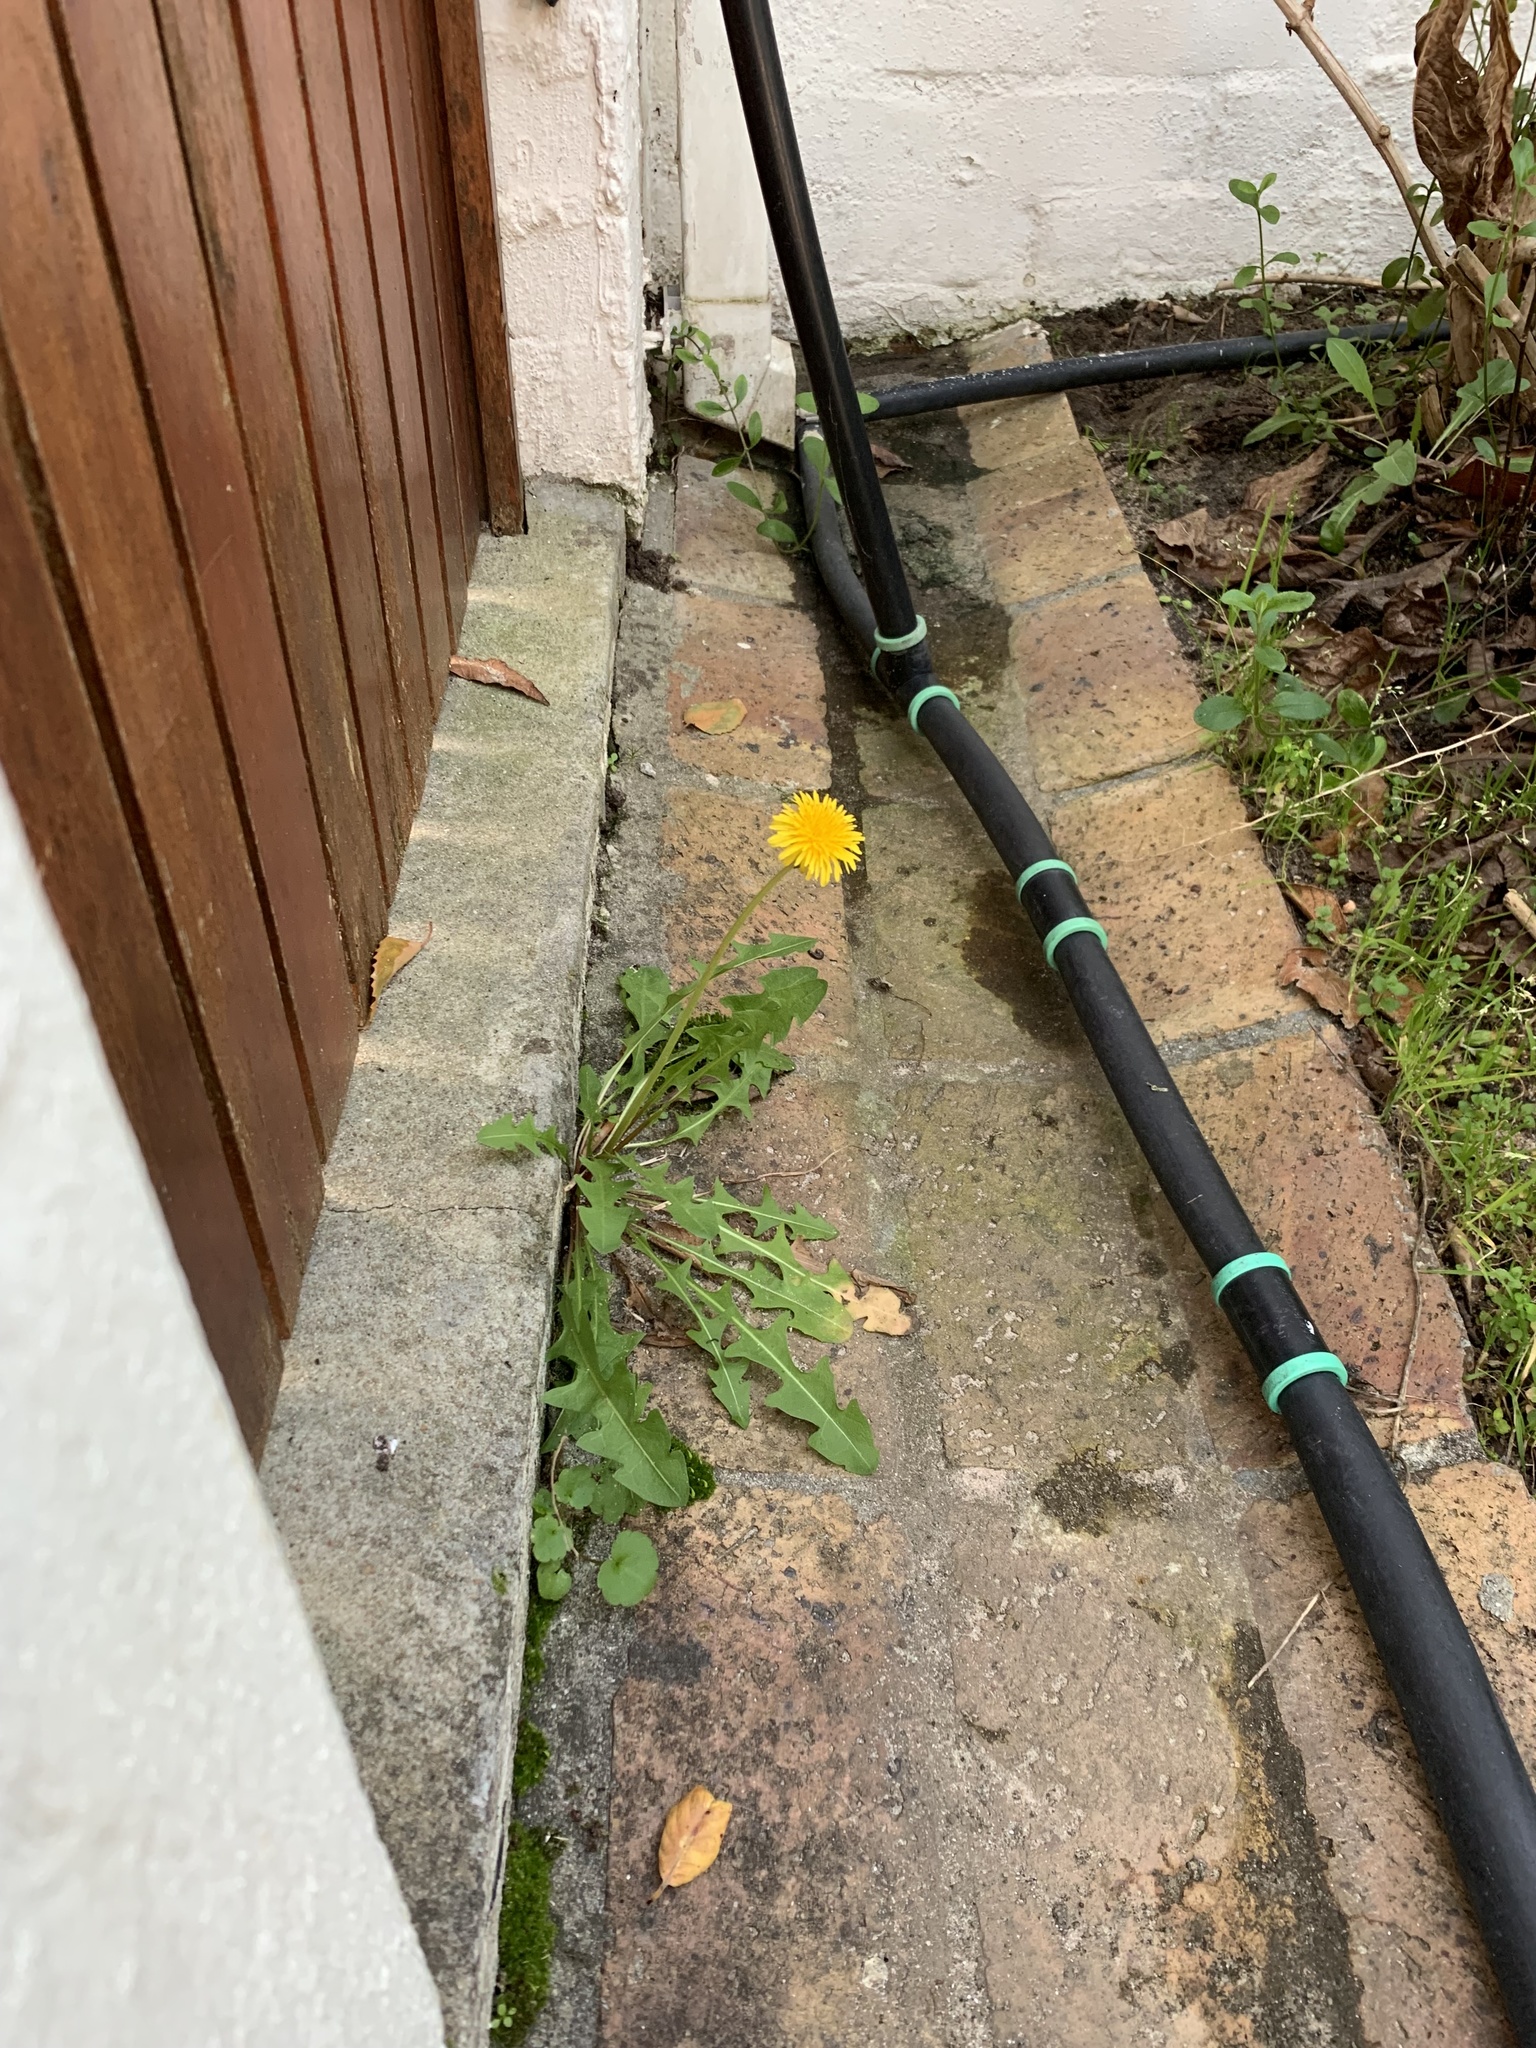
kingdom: Plantae
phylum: Tracheophyta
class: Magnoliopsida
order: Asterales
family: Asteraceae
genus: Taraxacum
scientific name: Taraxacum officinale
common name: Common dandelion
